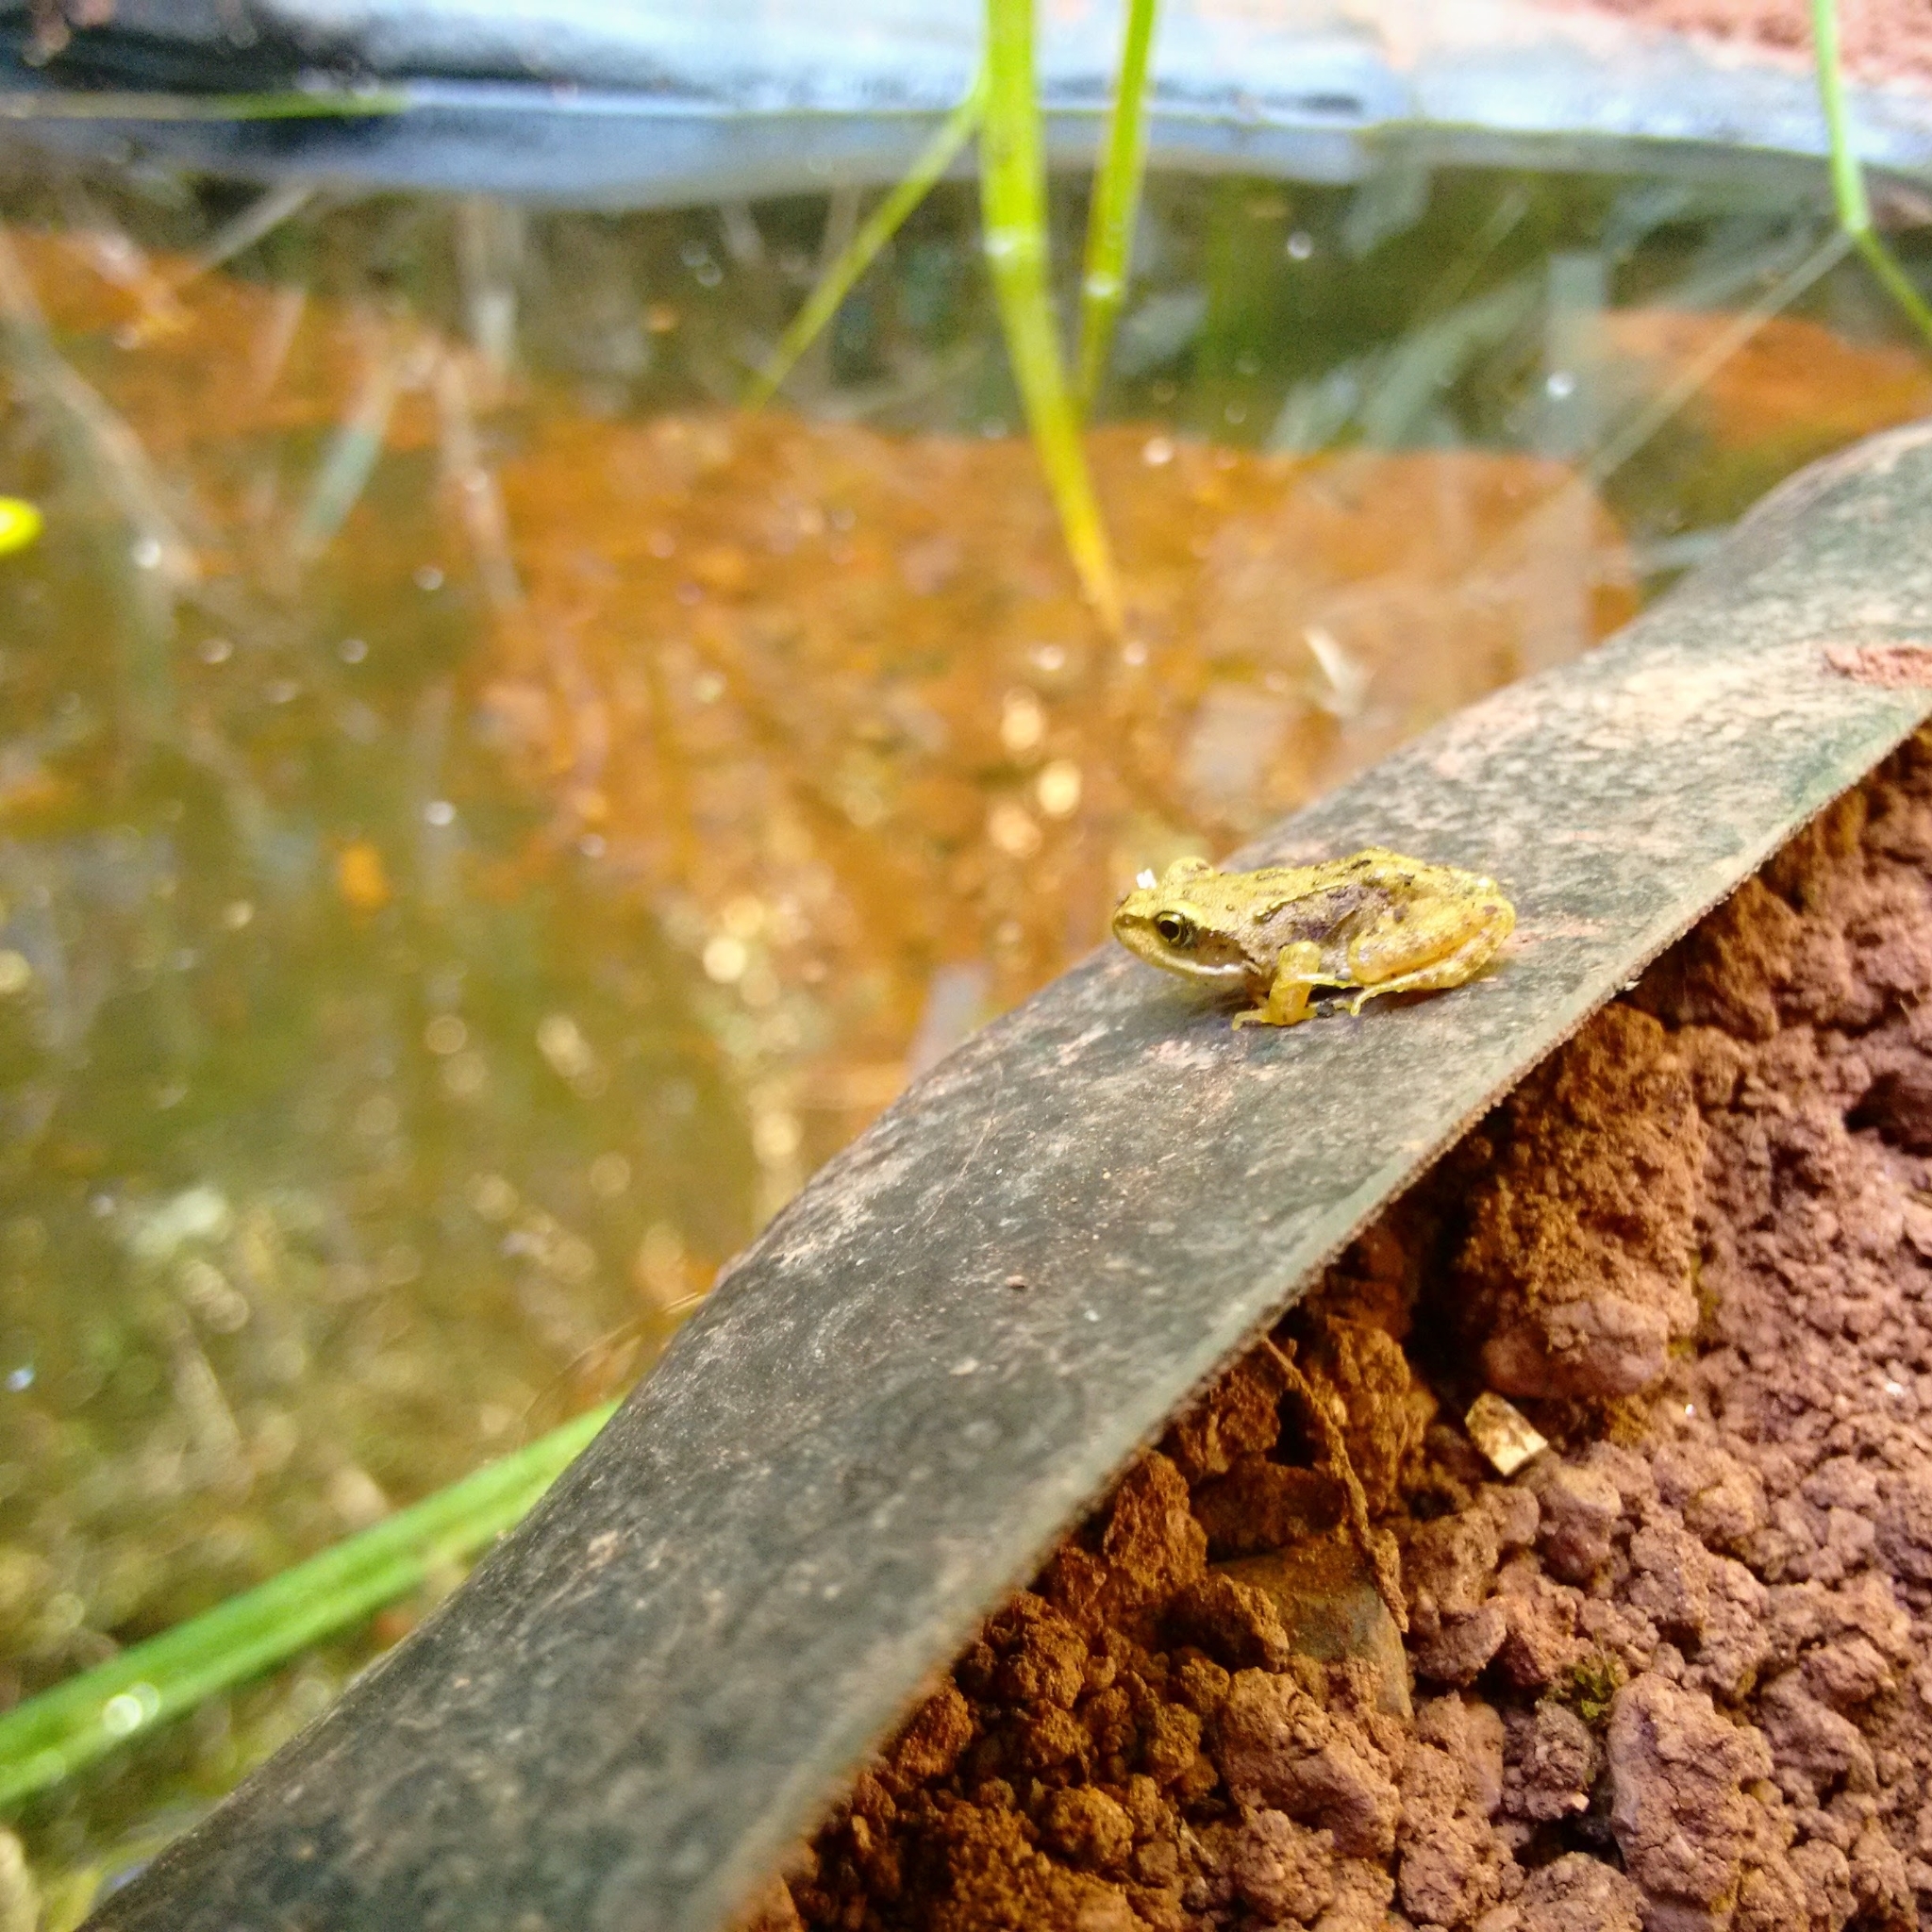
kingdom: Animalia
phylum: Chordata
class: Amphibia
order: Anura
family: Ranidae
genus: Rana
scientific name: Rana temporaria
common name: Common frog
